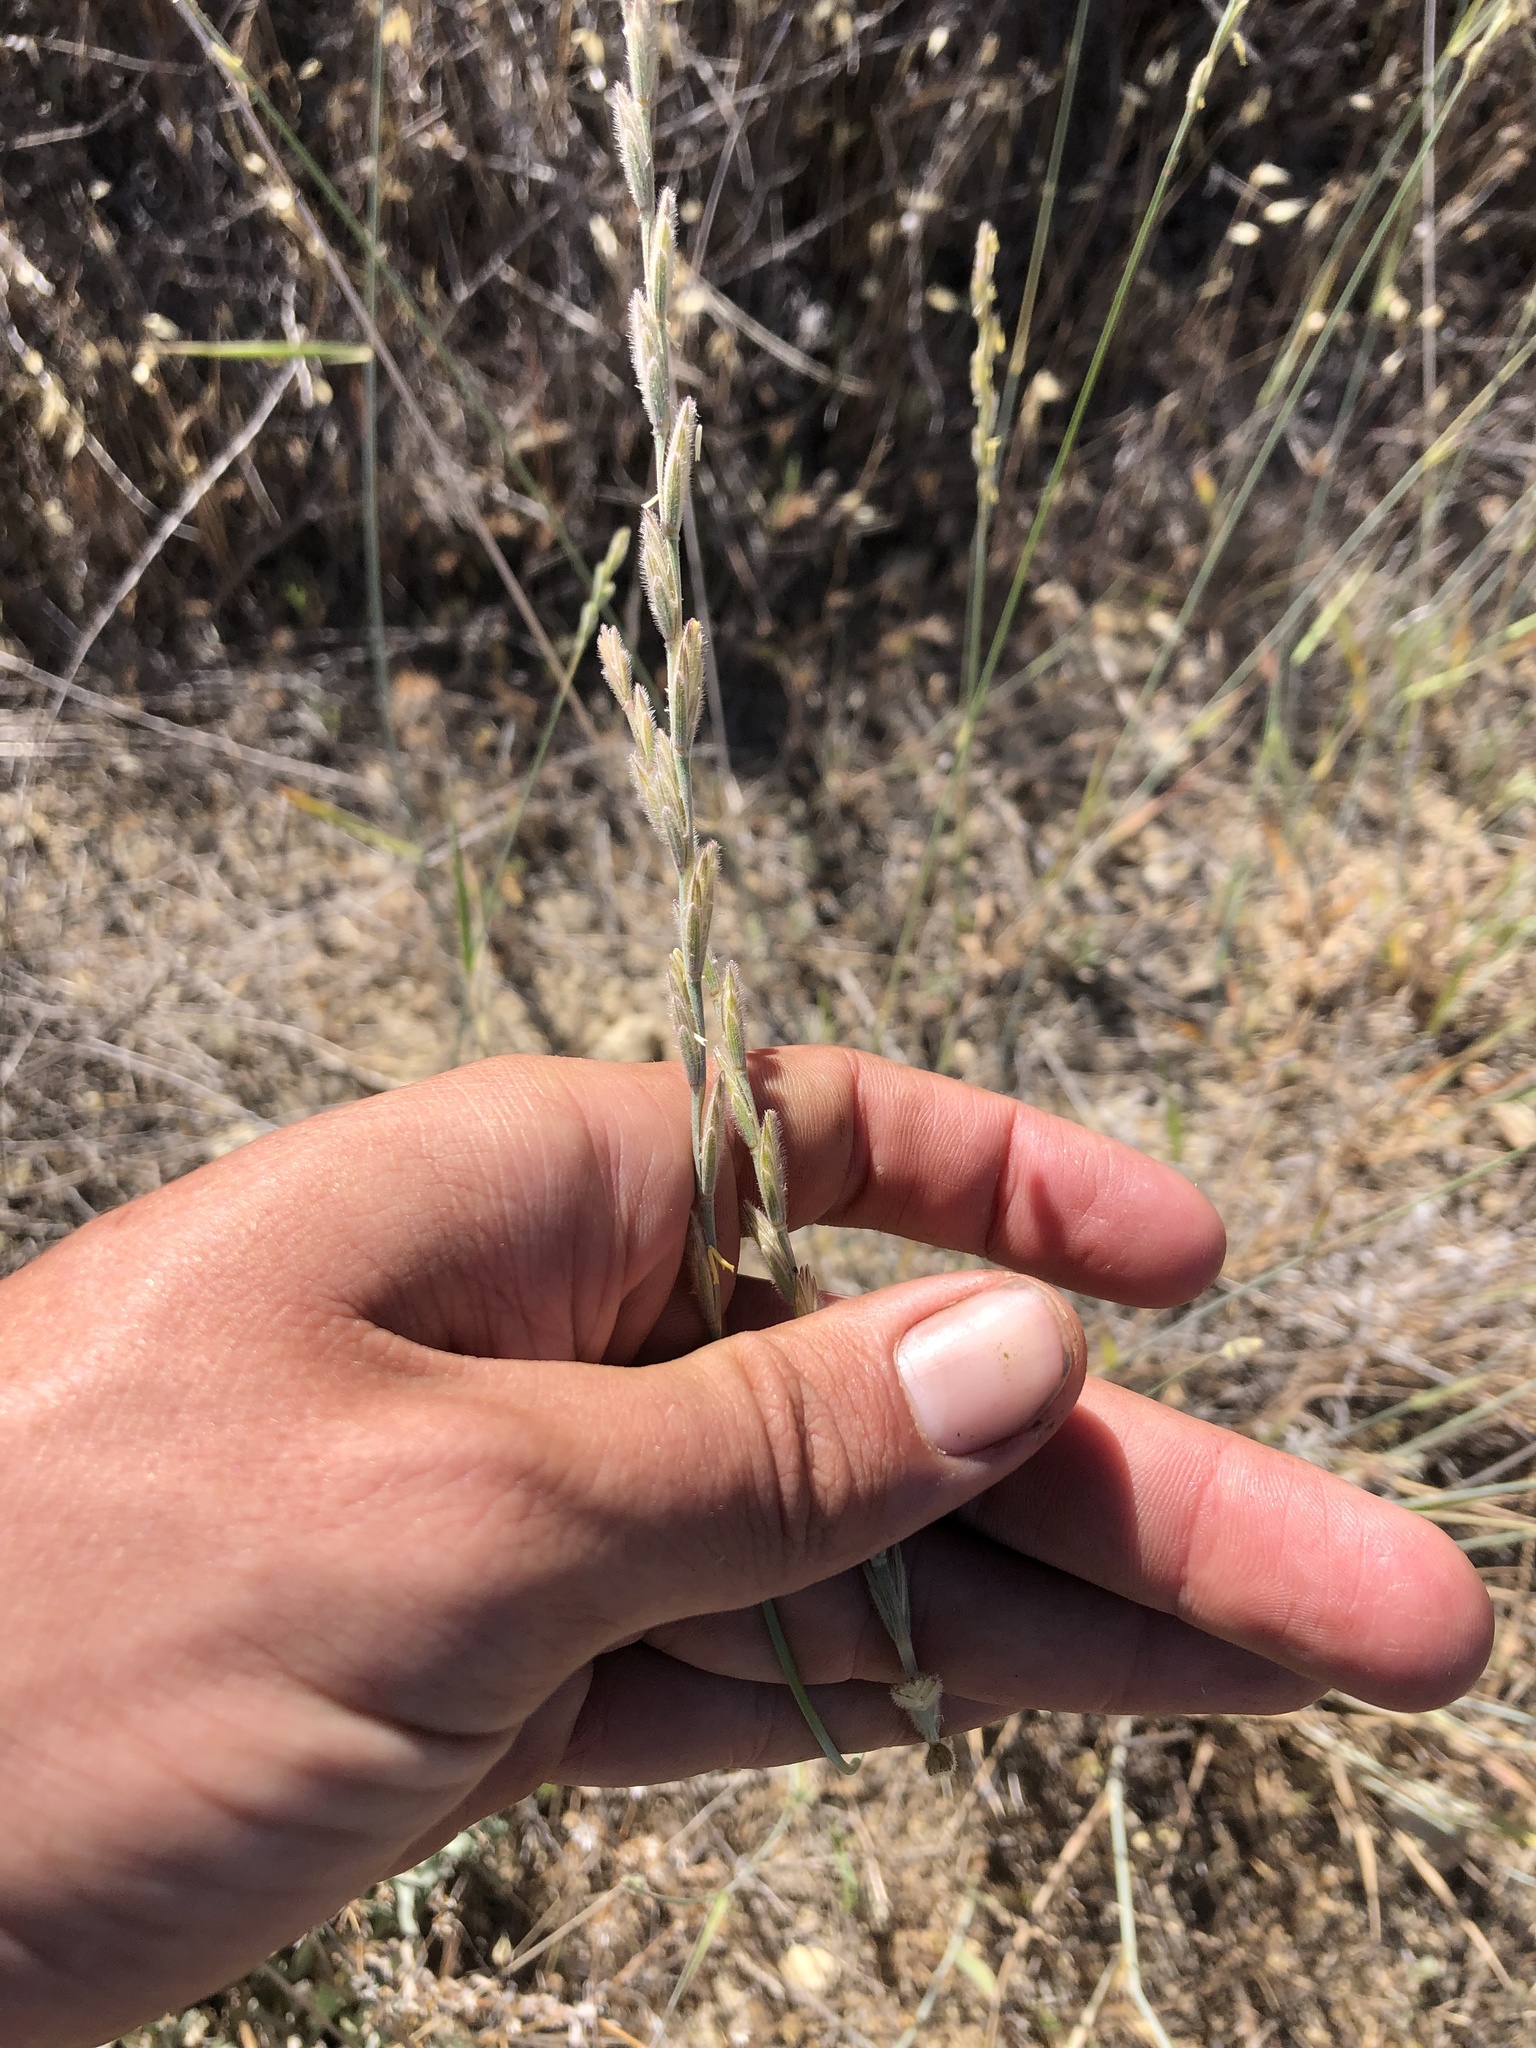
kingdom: Plantae
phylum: Tracheophyta
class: Liliopsida
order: Poales
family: Poaceae
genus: Elymus
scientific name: Elymus lanceolatus
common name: Thick-spike wheatgrass
